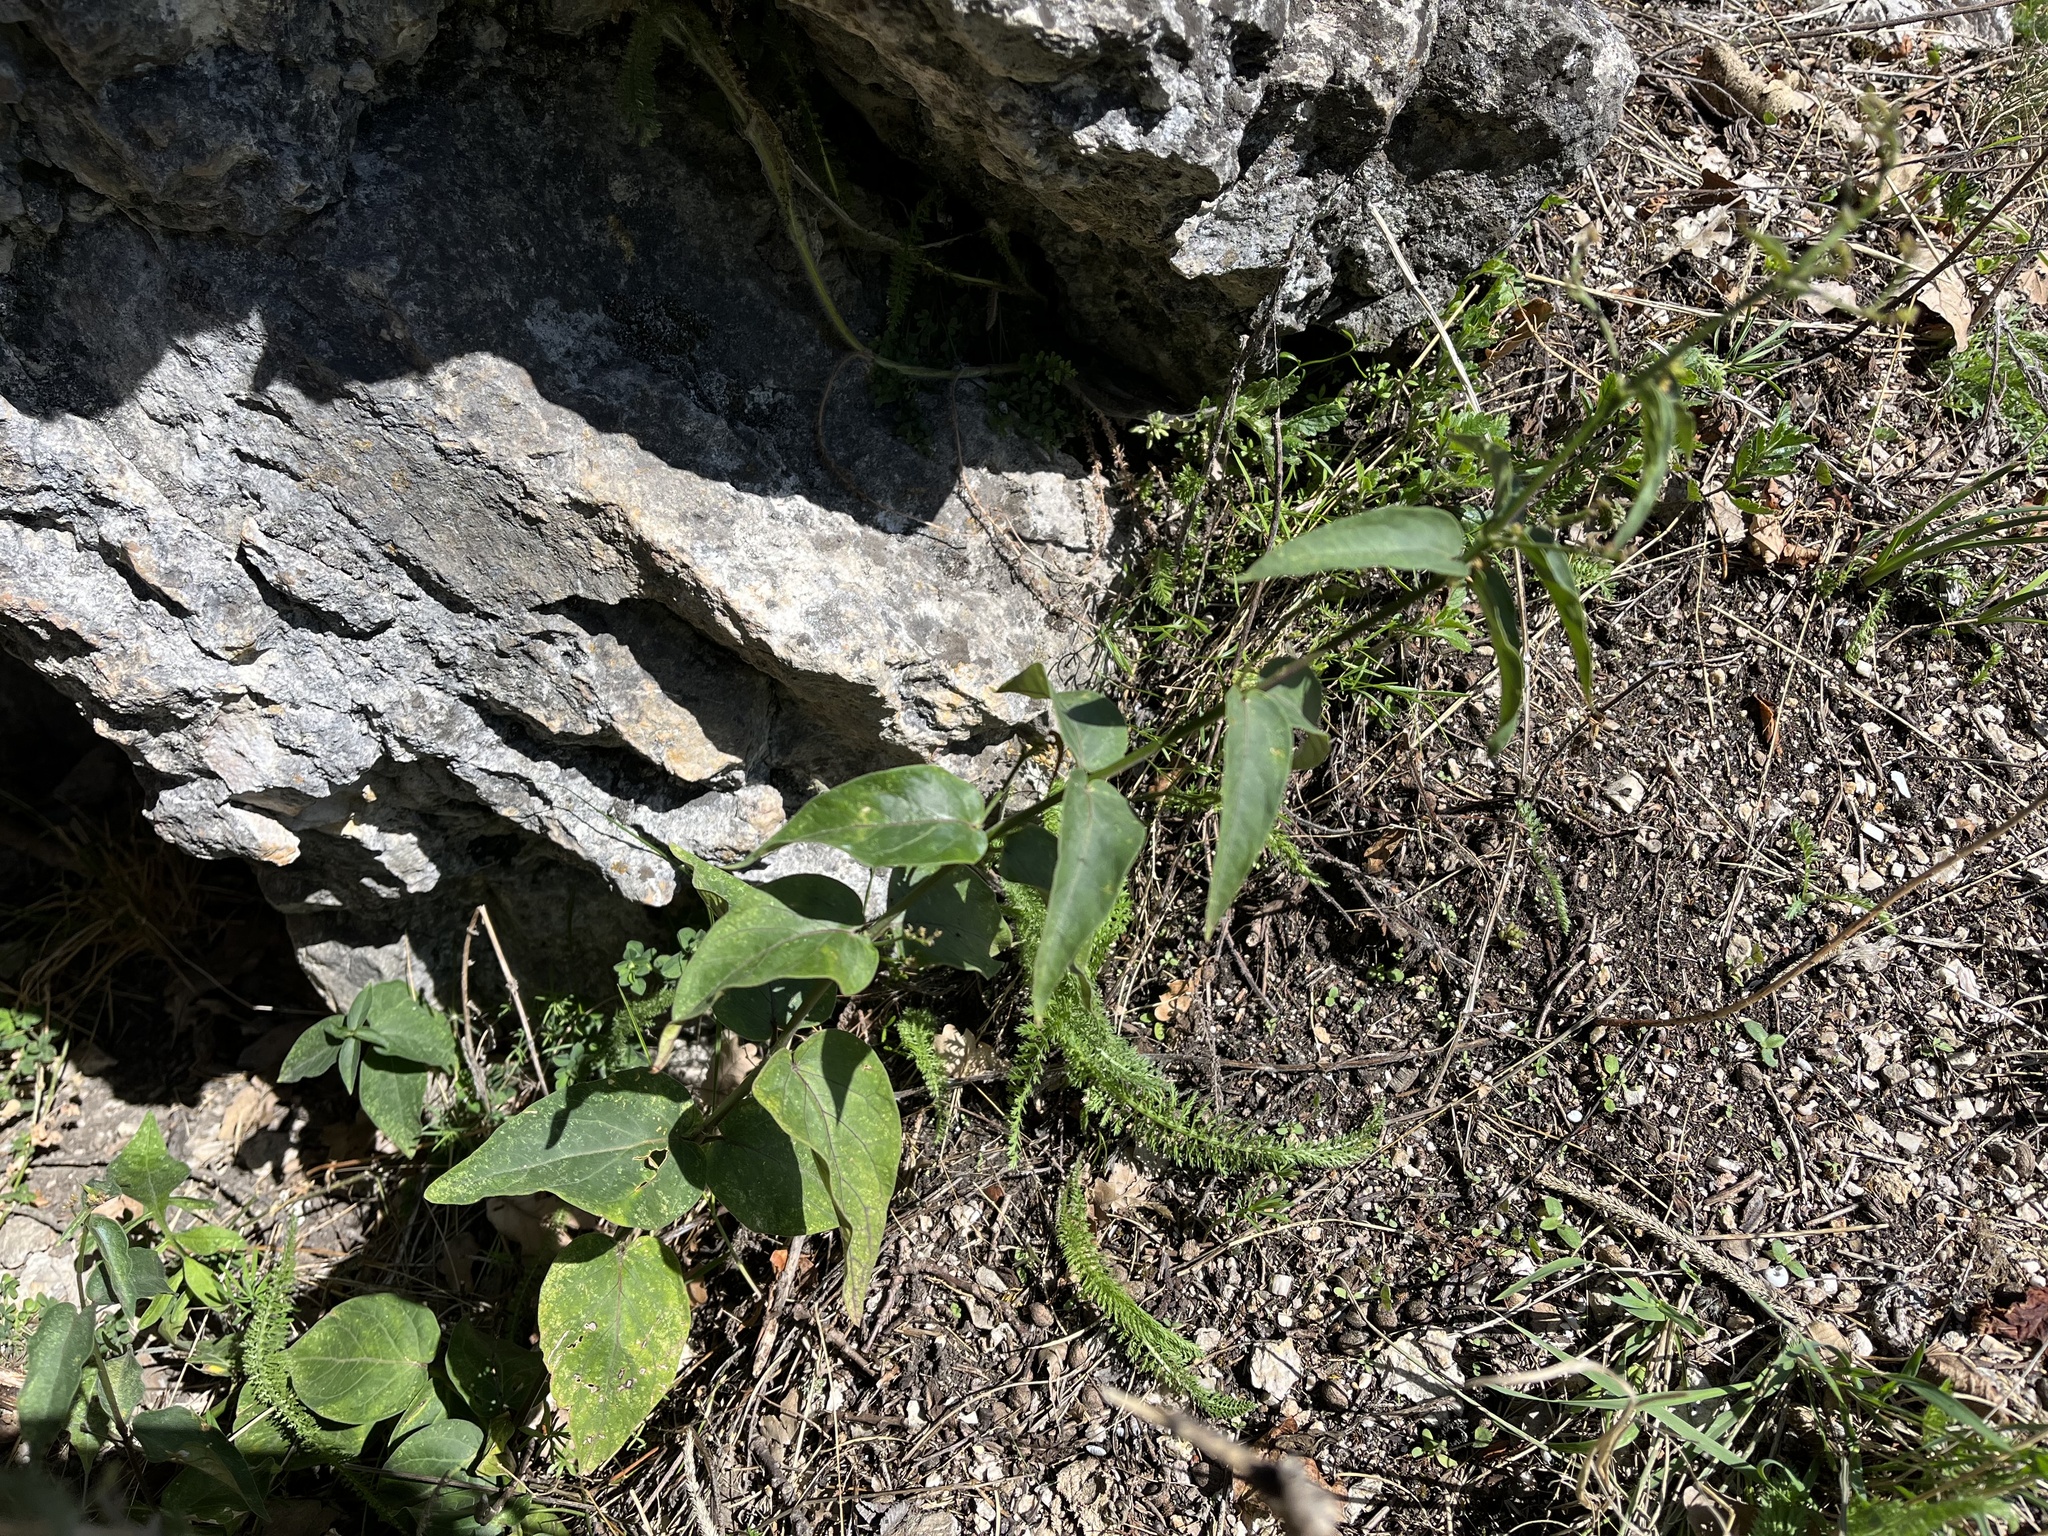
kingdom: Plantae
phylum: Tracheophyta
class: Magnoliopsida
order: Gentianales
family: Apocynaceae
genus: Vincetoxicum
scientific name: Vincetoxicum hirundinaria
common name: White swallowwort
